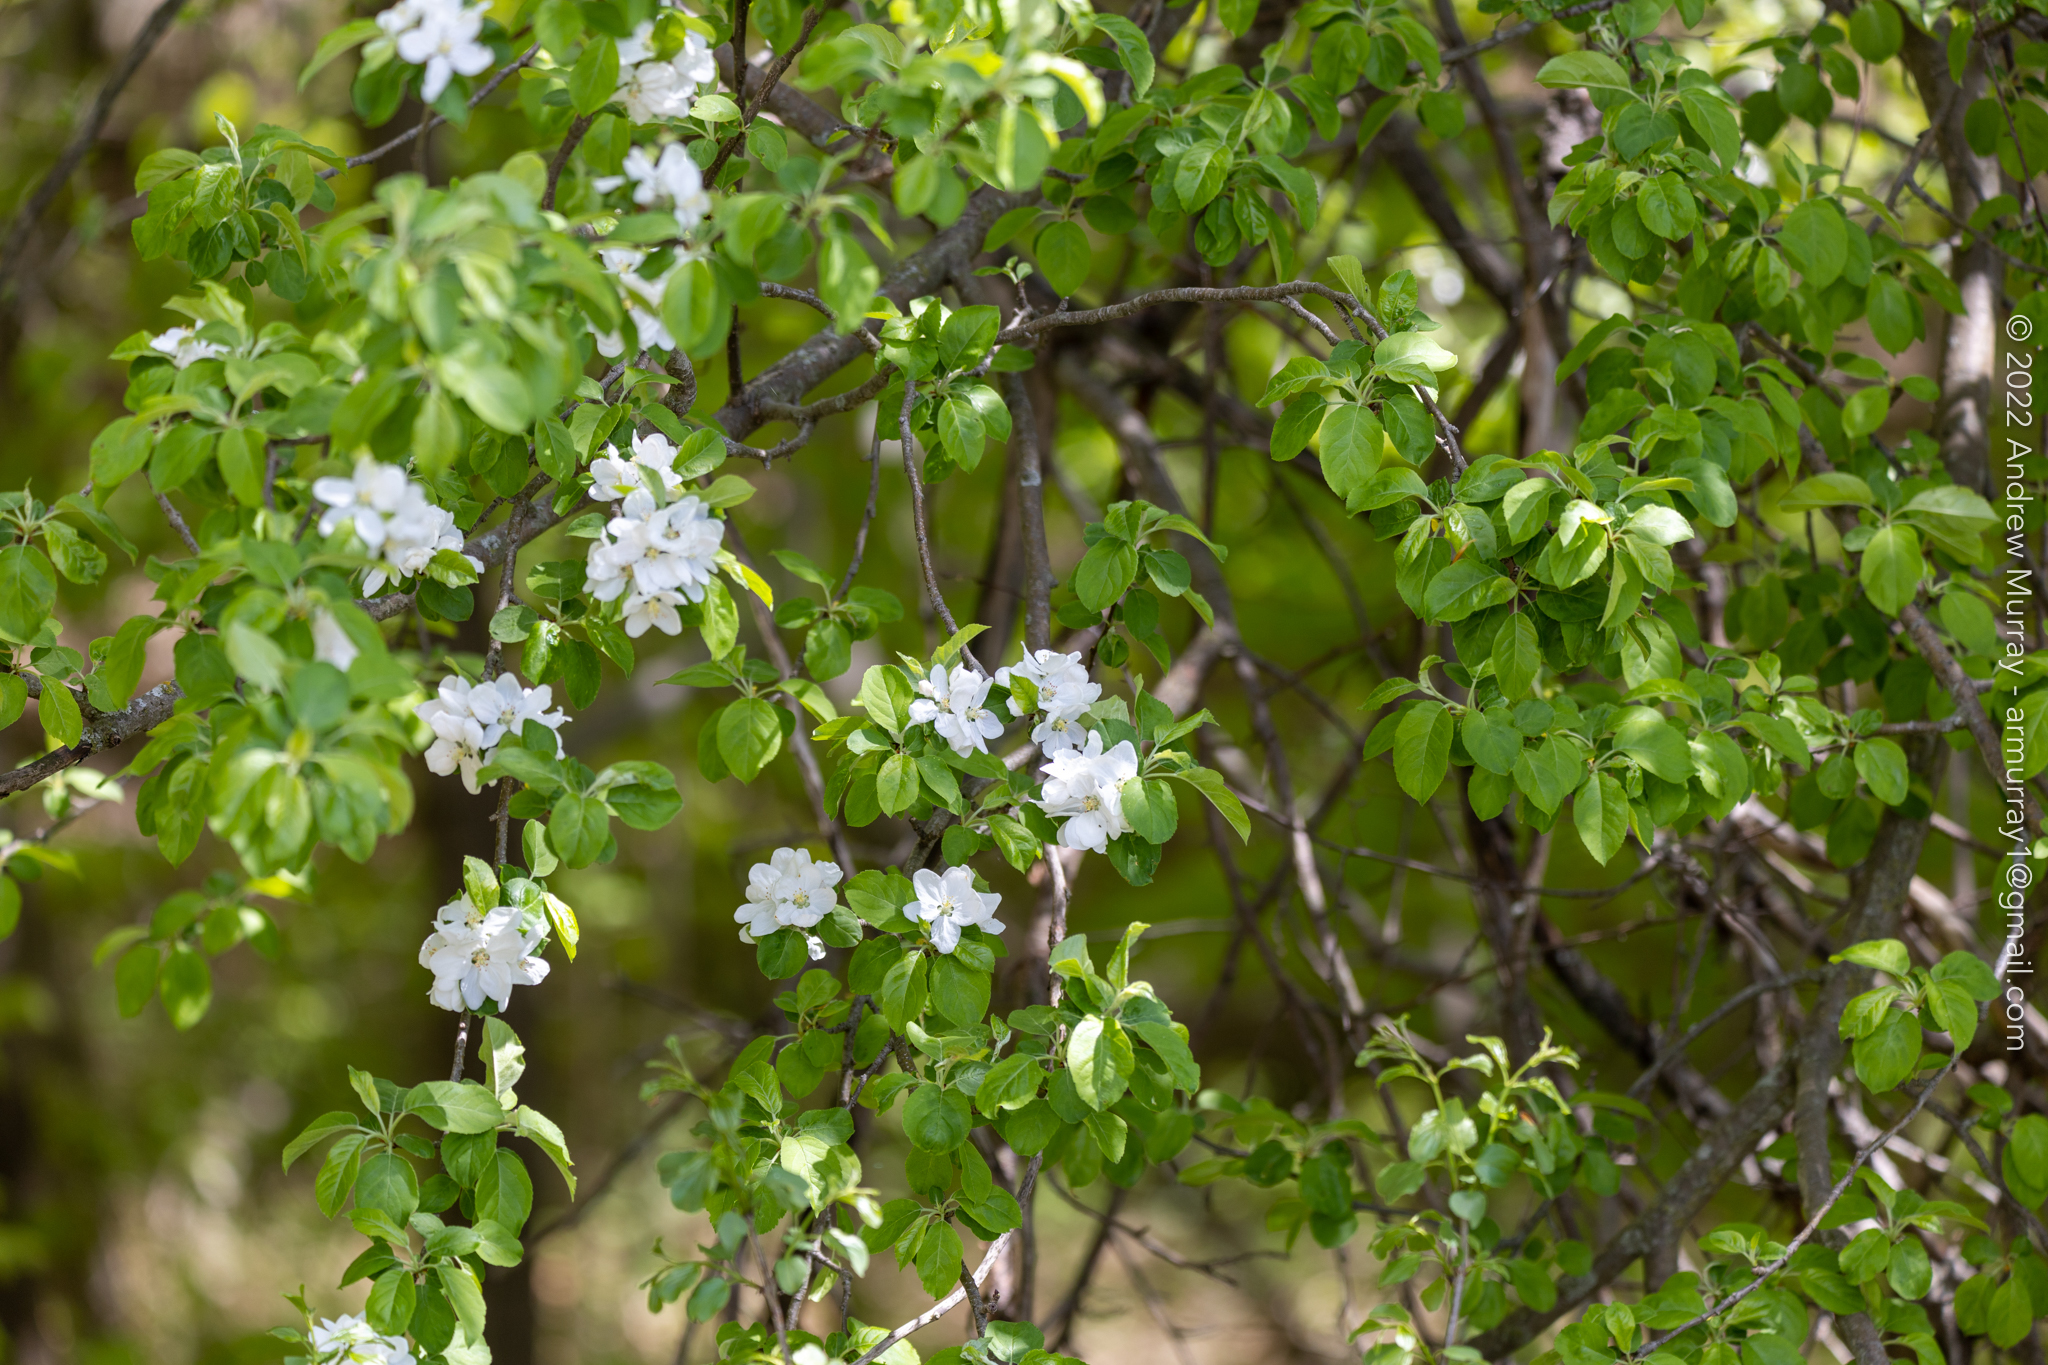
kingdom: Plantae
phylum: Tracheophyta
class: Magnoliopsida
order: Rosales
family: Rosaceae
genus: Malus
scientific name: Malus domestica
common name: Apple
